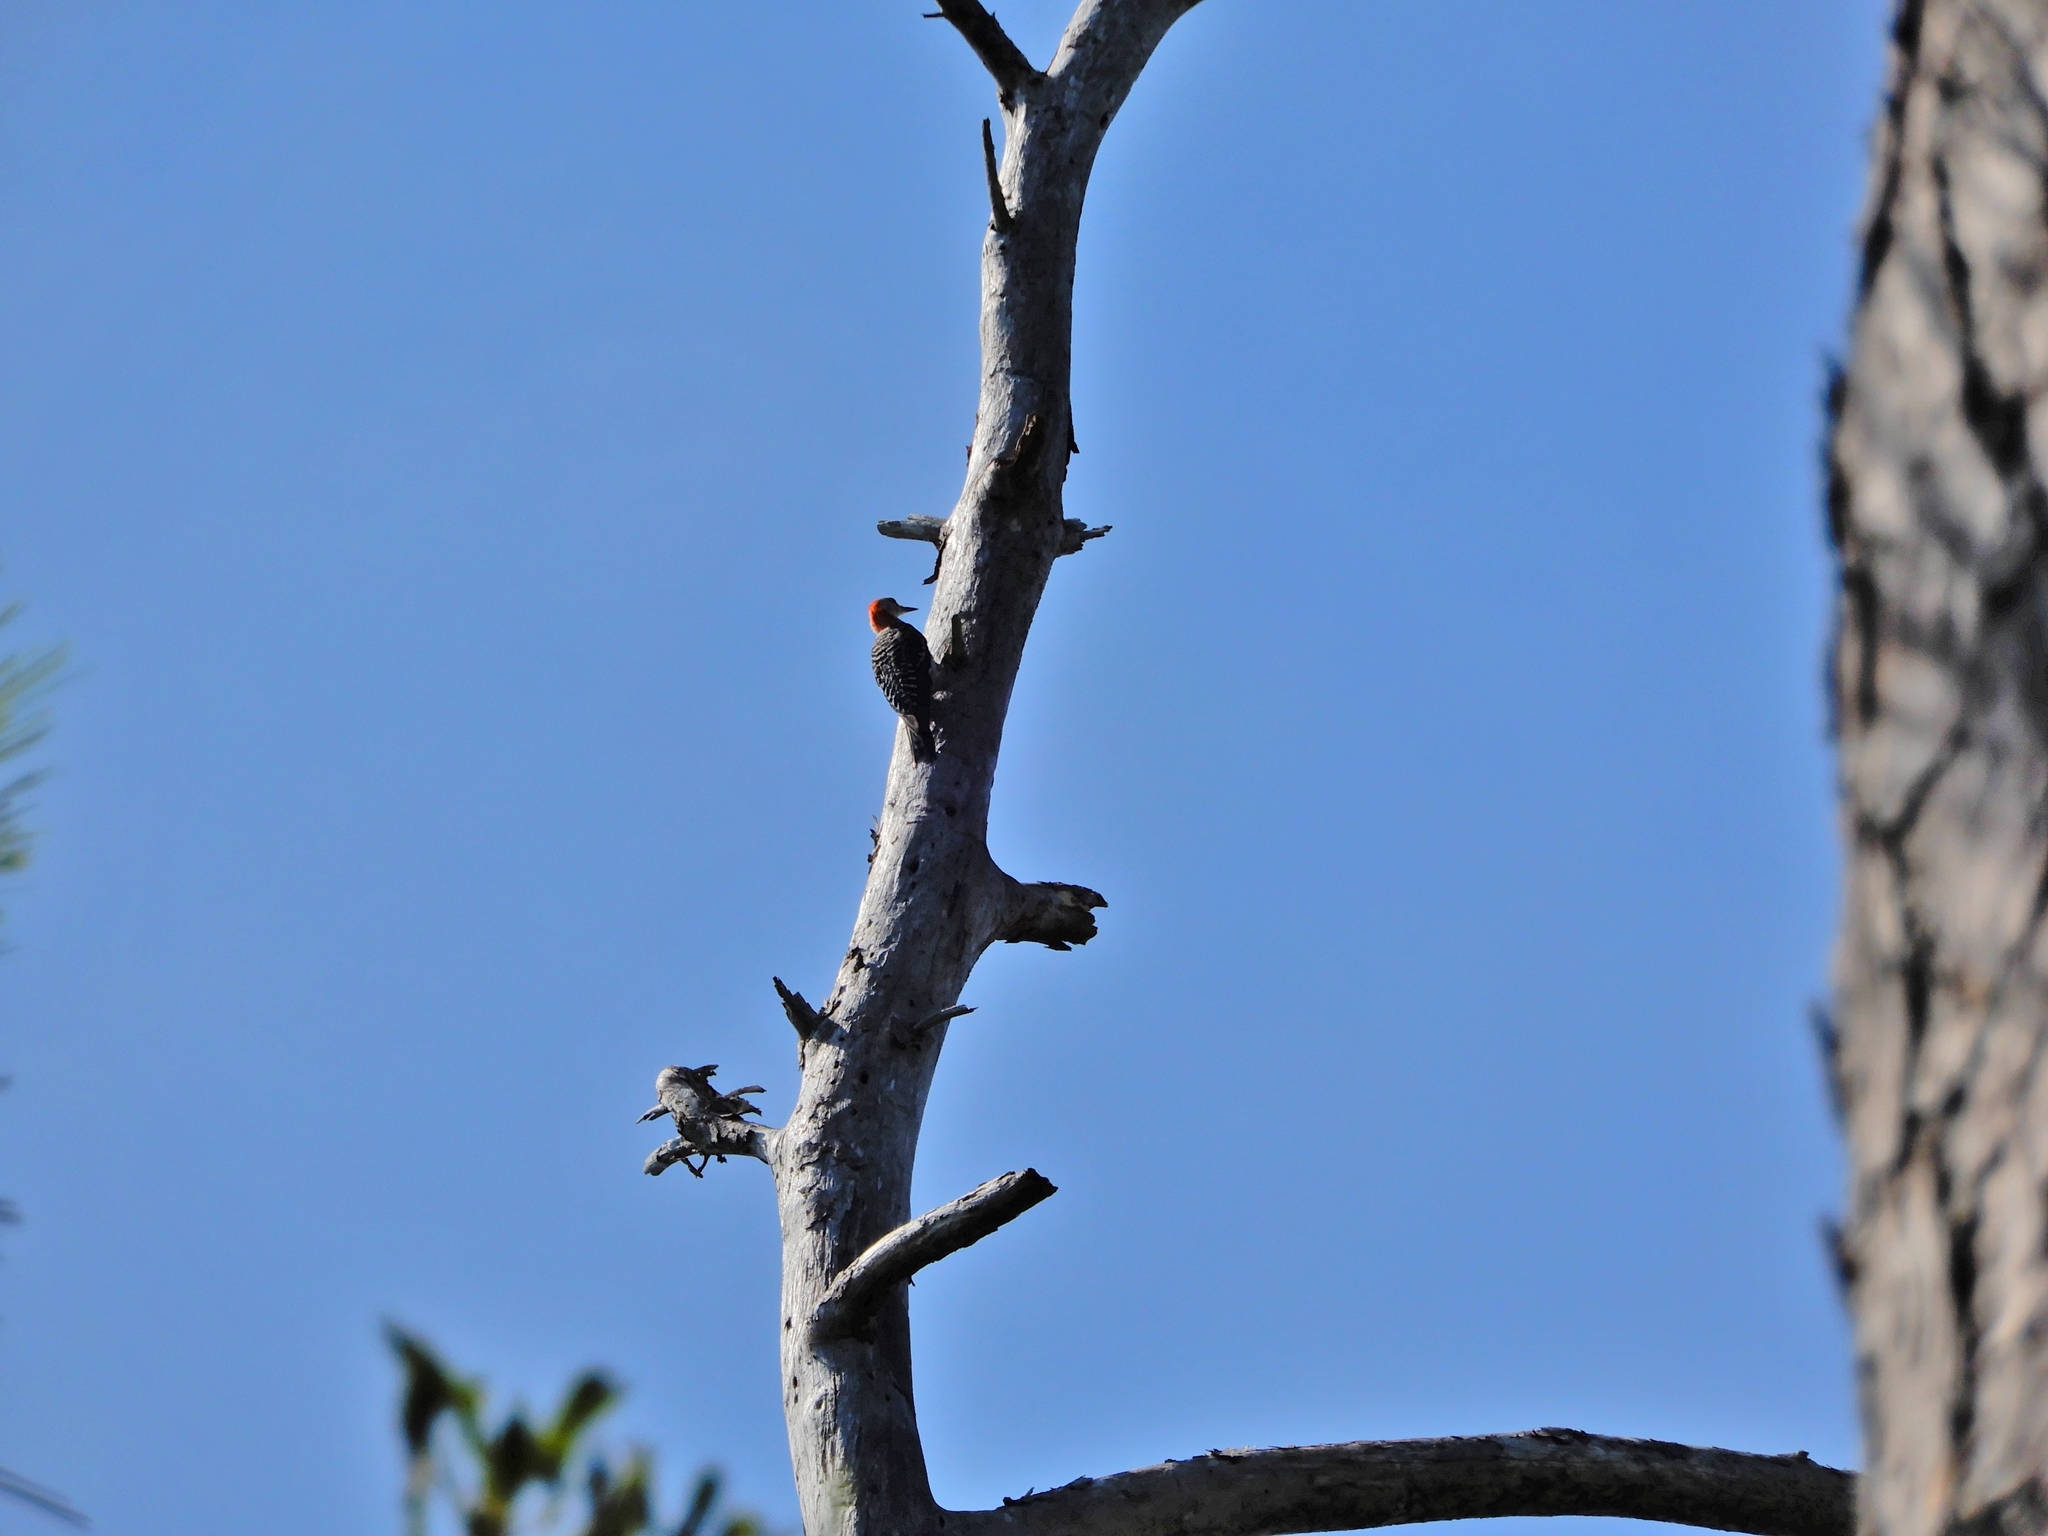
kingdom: Animalia
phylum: Chordata
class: Aves
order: Piciformes
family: Picidae
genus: Melanerpes
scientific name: Melanerpes carolinus
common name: Red-bellied woodpecker
